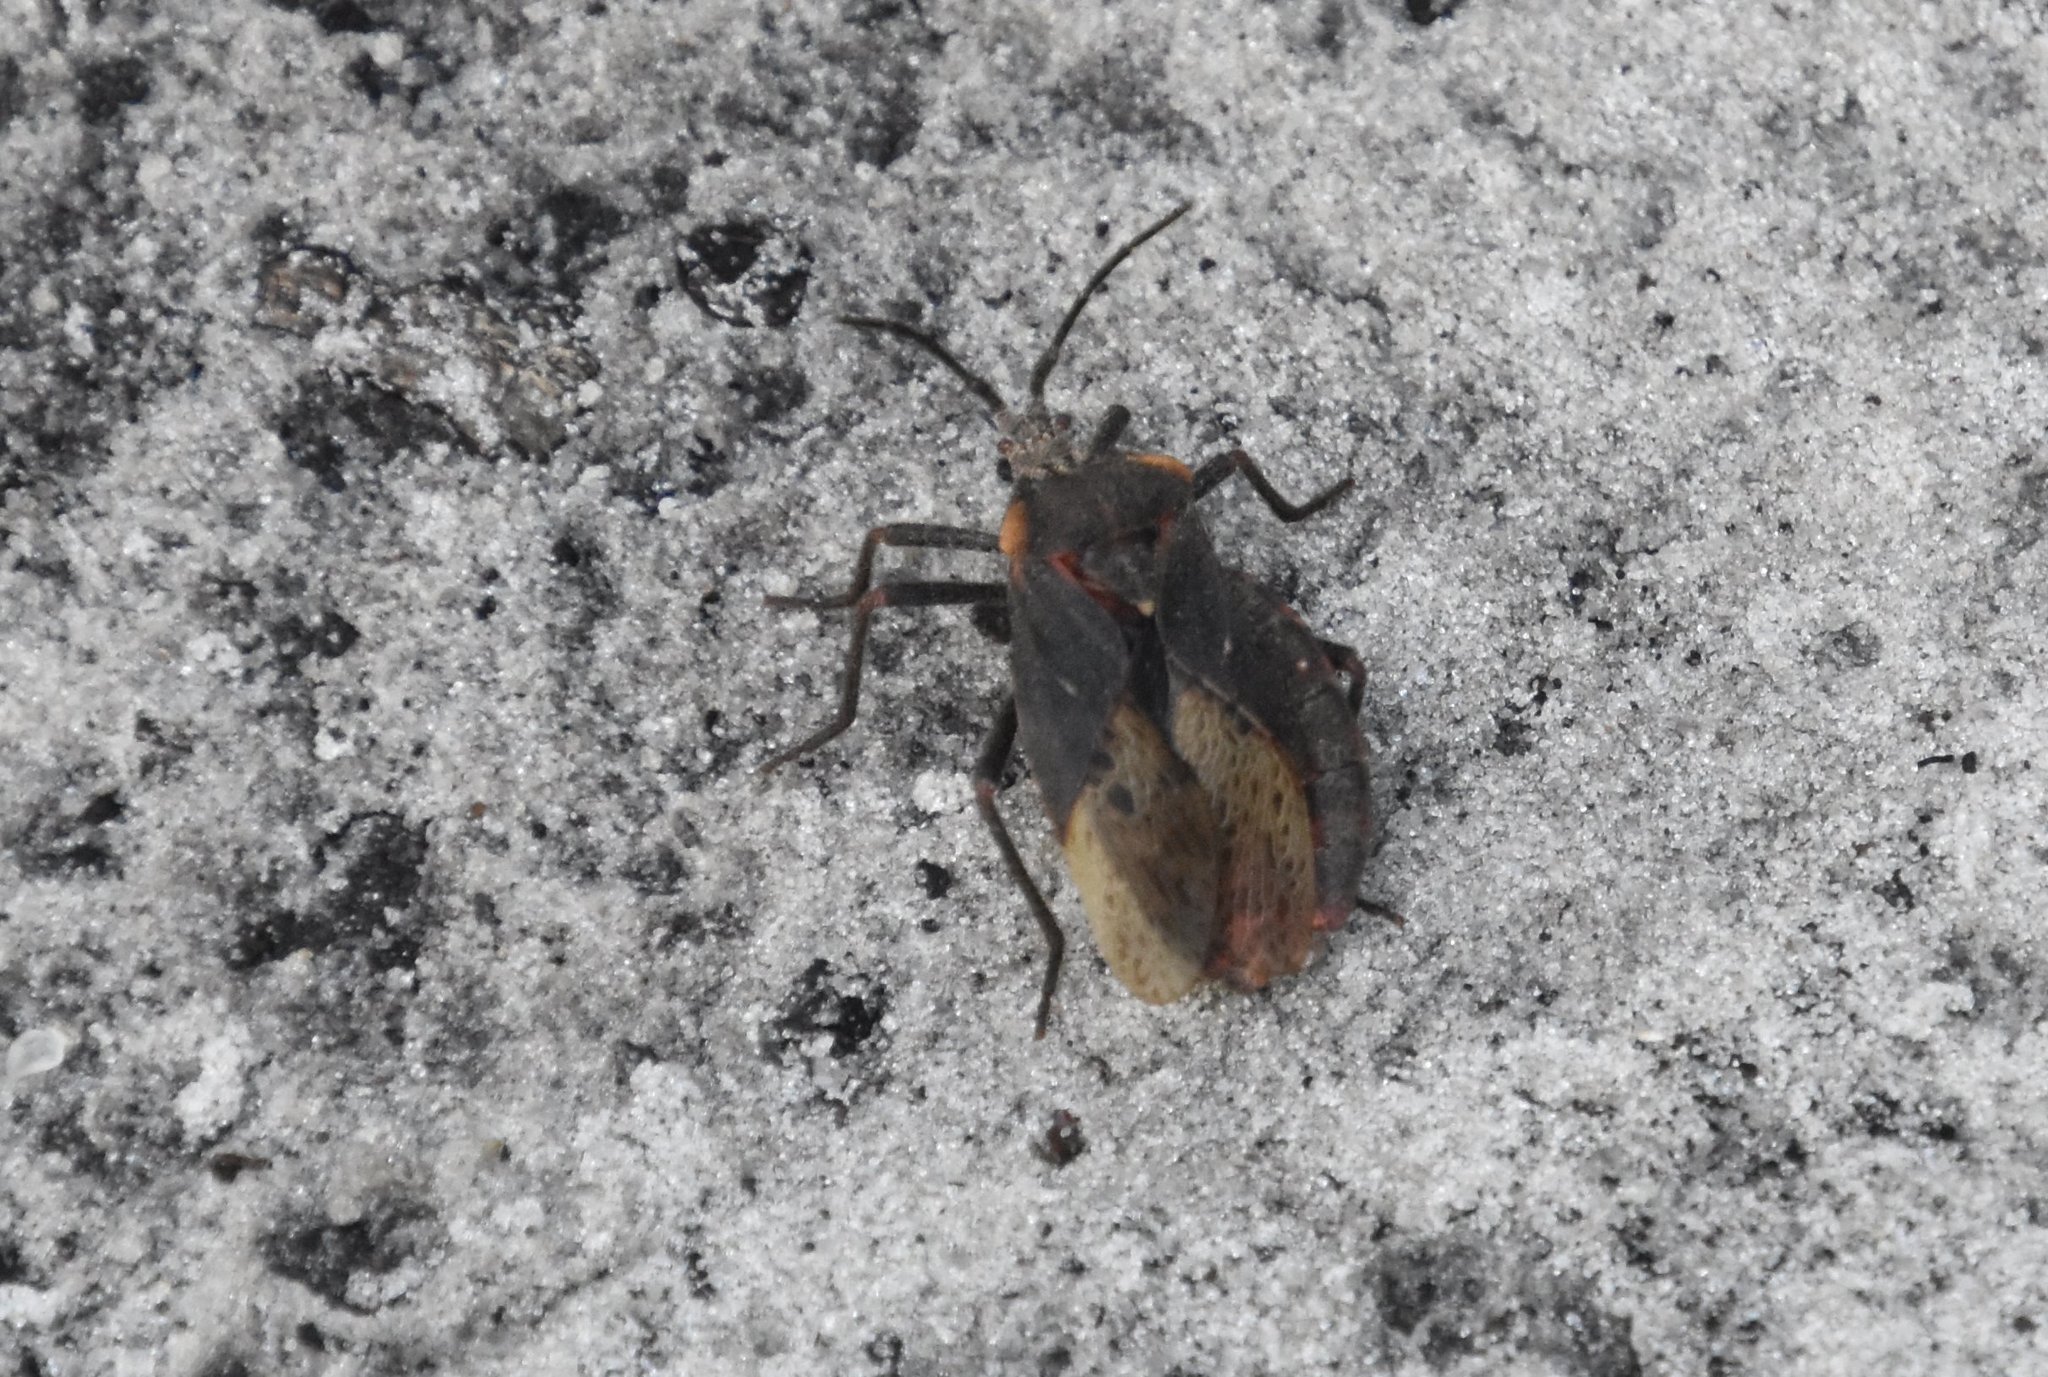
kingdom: Animalia
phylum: Arthropoda
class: Insecta
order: Hemiptera
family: Coreidae
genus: Spartocera
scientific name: Spartocera batatas
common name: Giant sweetpotato bug
